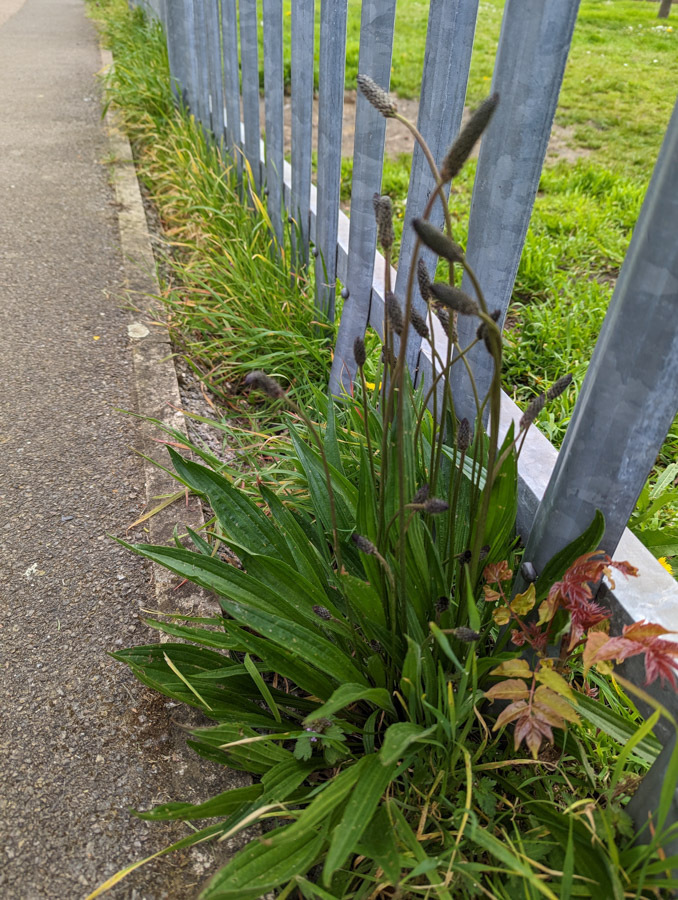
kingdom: Plantae
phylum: Tracheophyta
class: Magnoliopsida
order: Lamiales
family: Plantaginaceae
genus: Plantago
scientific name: Plantago lanceolata
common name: Ribwort plantain
